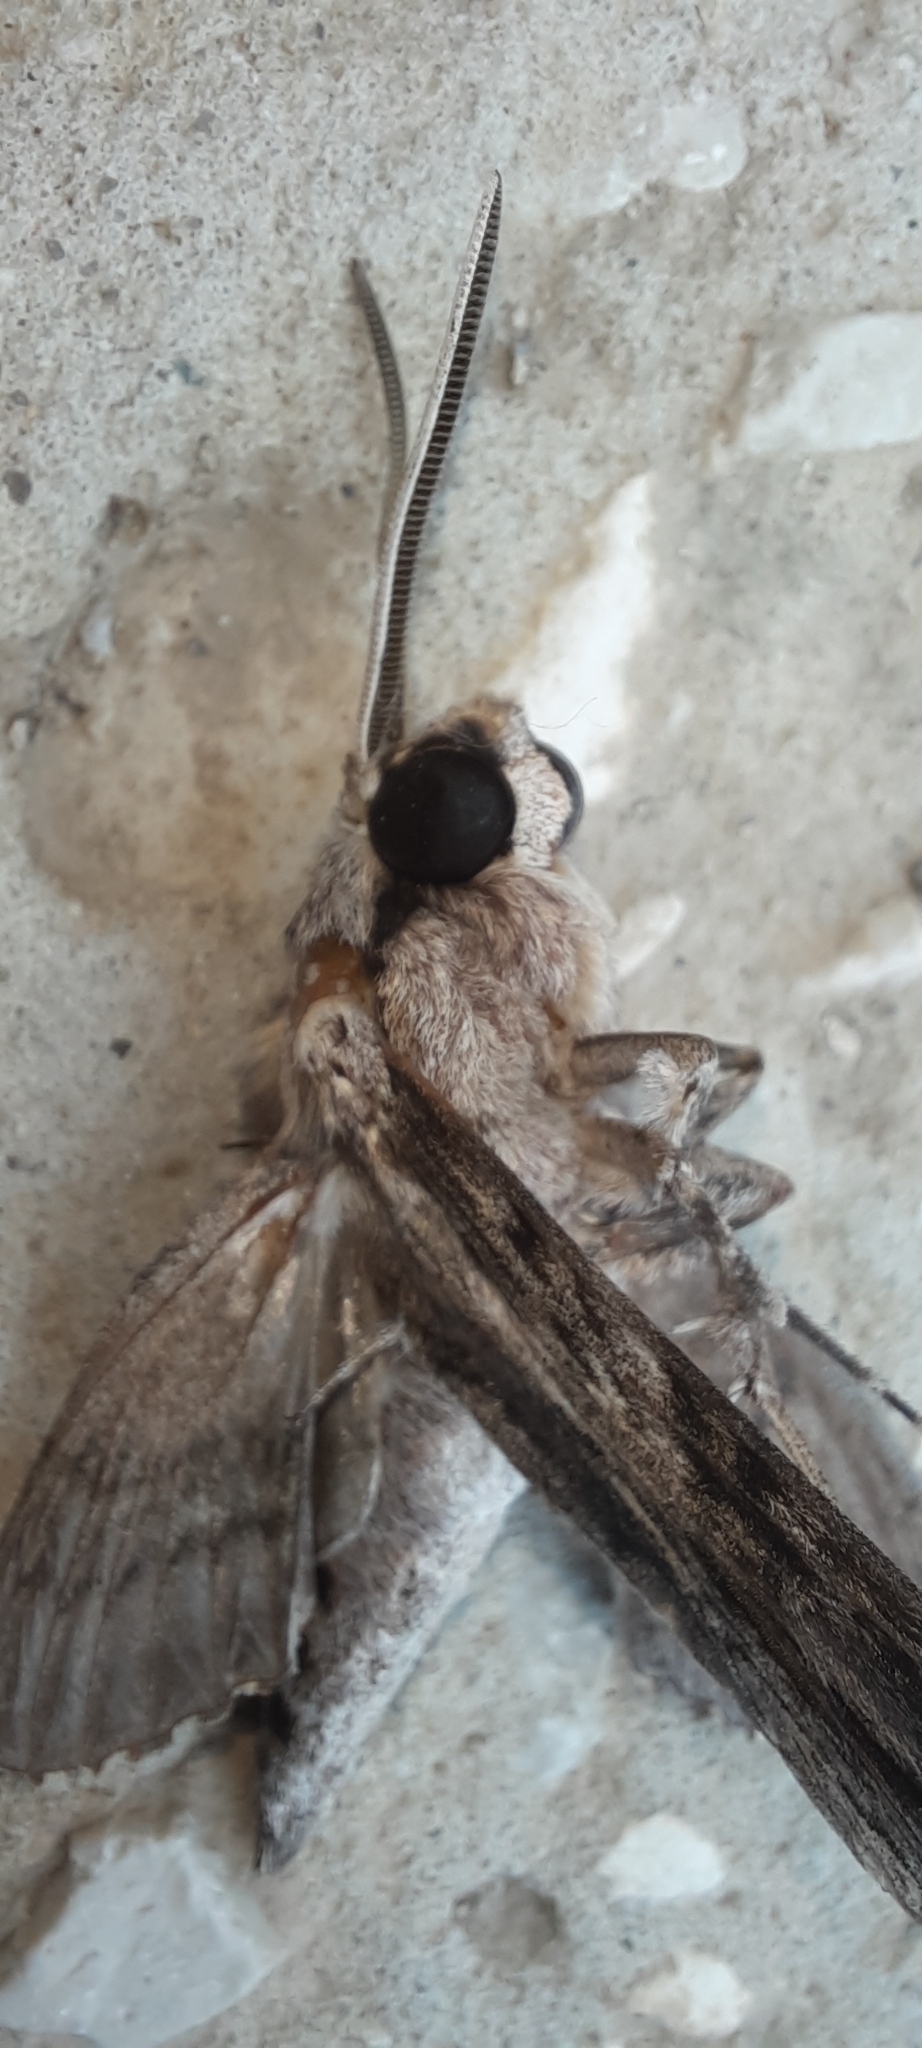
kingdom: Animalia
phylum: Arthropoda
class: Insecta
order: Lepidoptera
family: Sphingidae
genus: Agrius
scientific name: Agrius convolvuli
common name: Convolvulus hawkmoth
